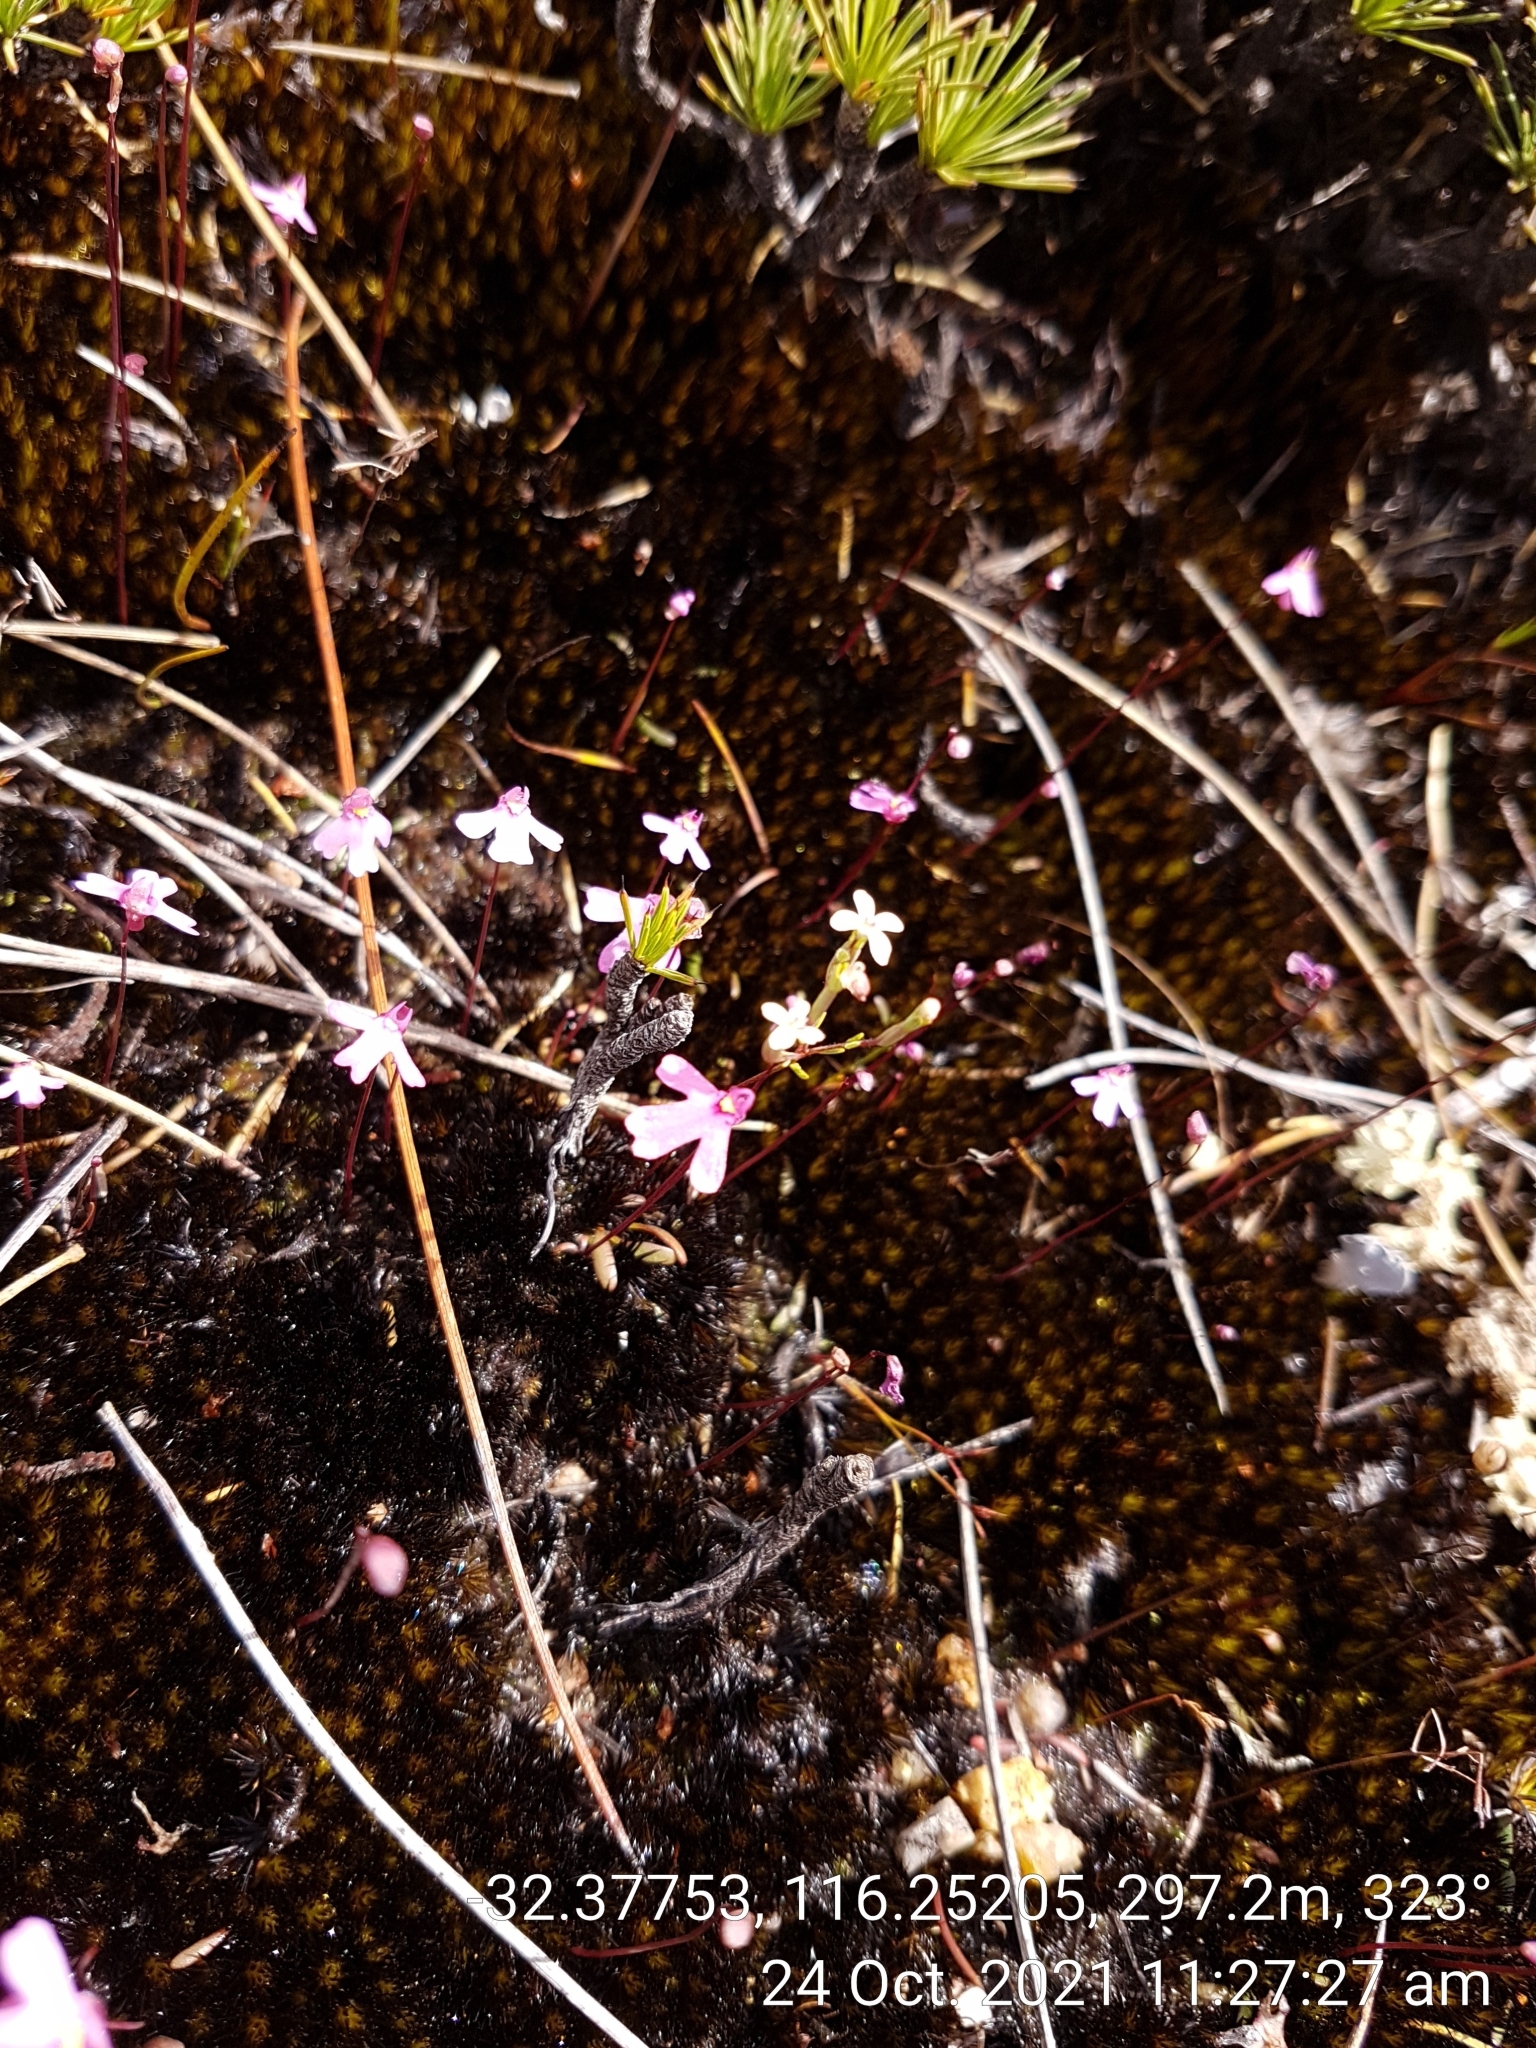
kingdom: Plantae
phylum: Tracheophyta
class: Magnoliopsida
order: Lamiales
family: Lentibulariaceae
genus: Utricularia
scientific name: Utricularia multifida
